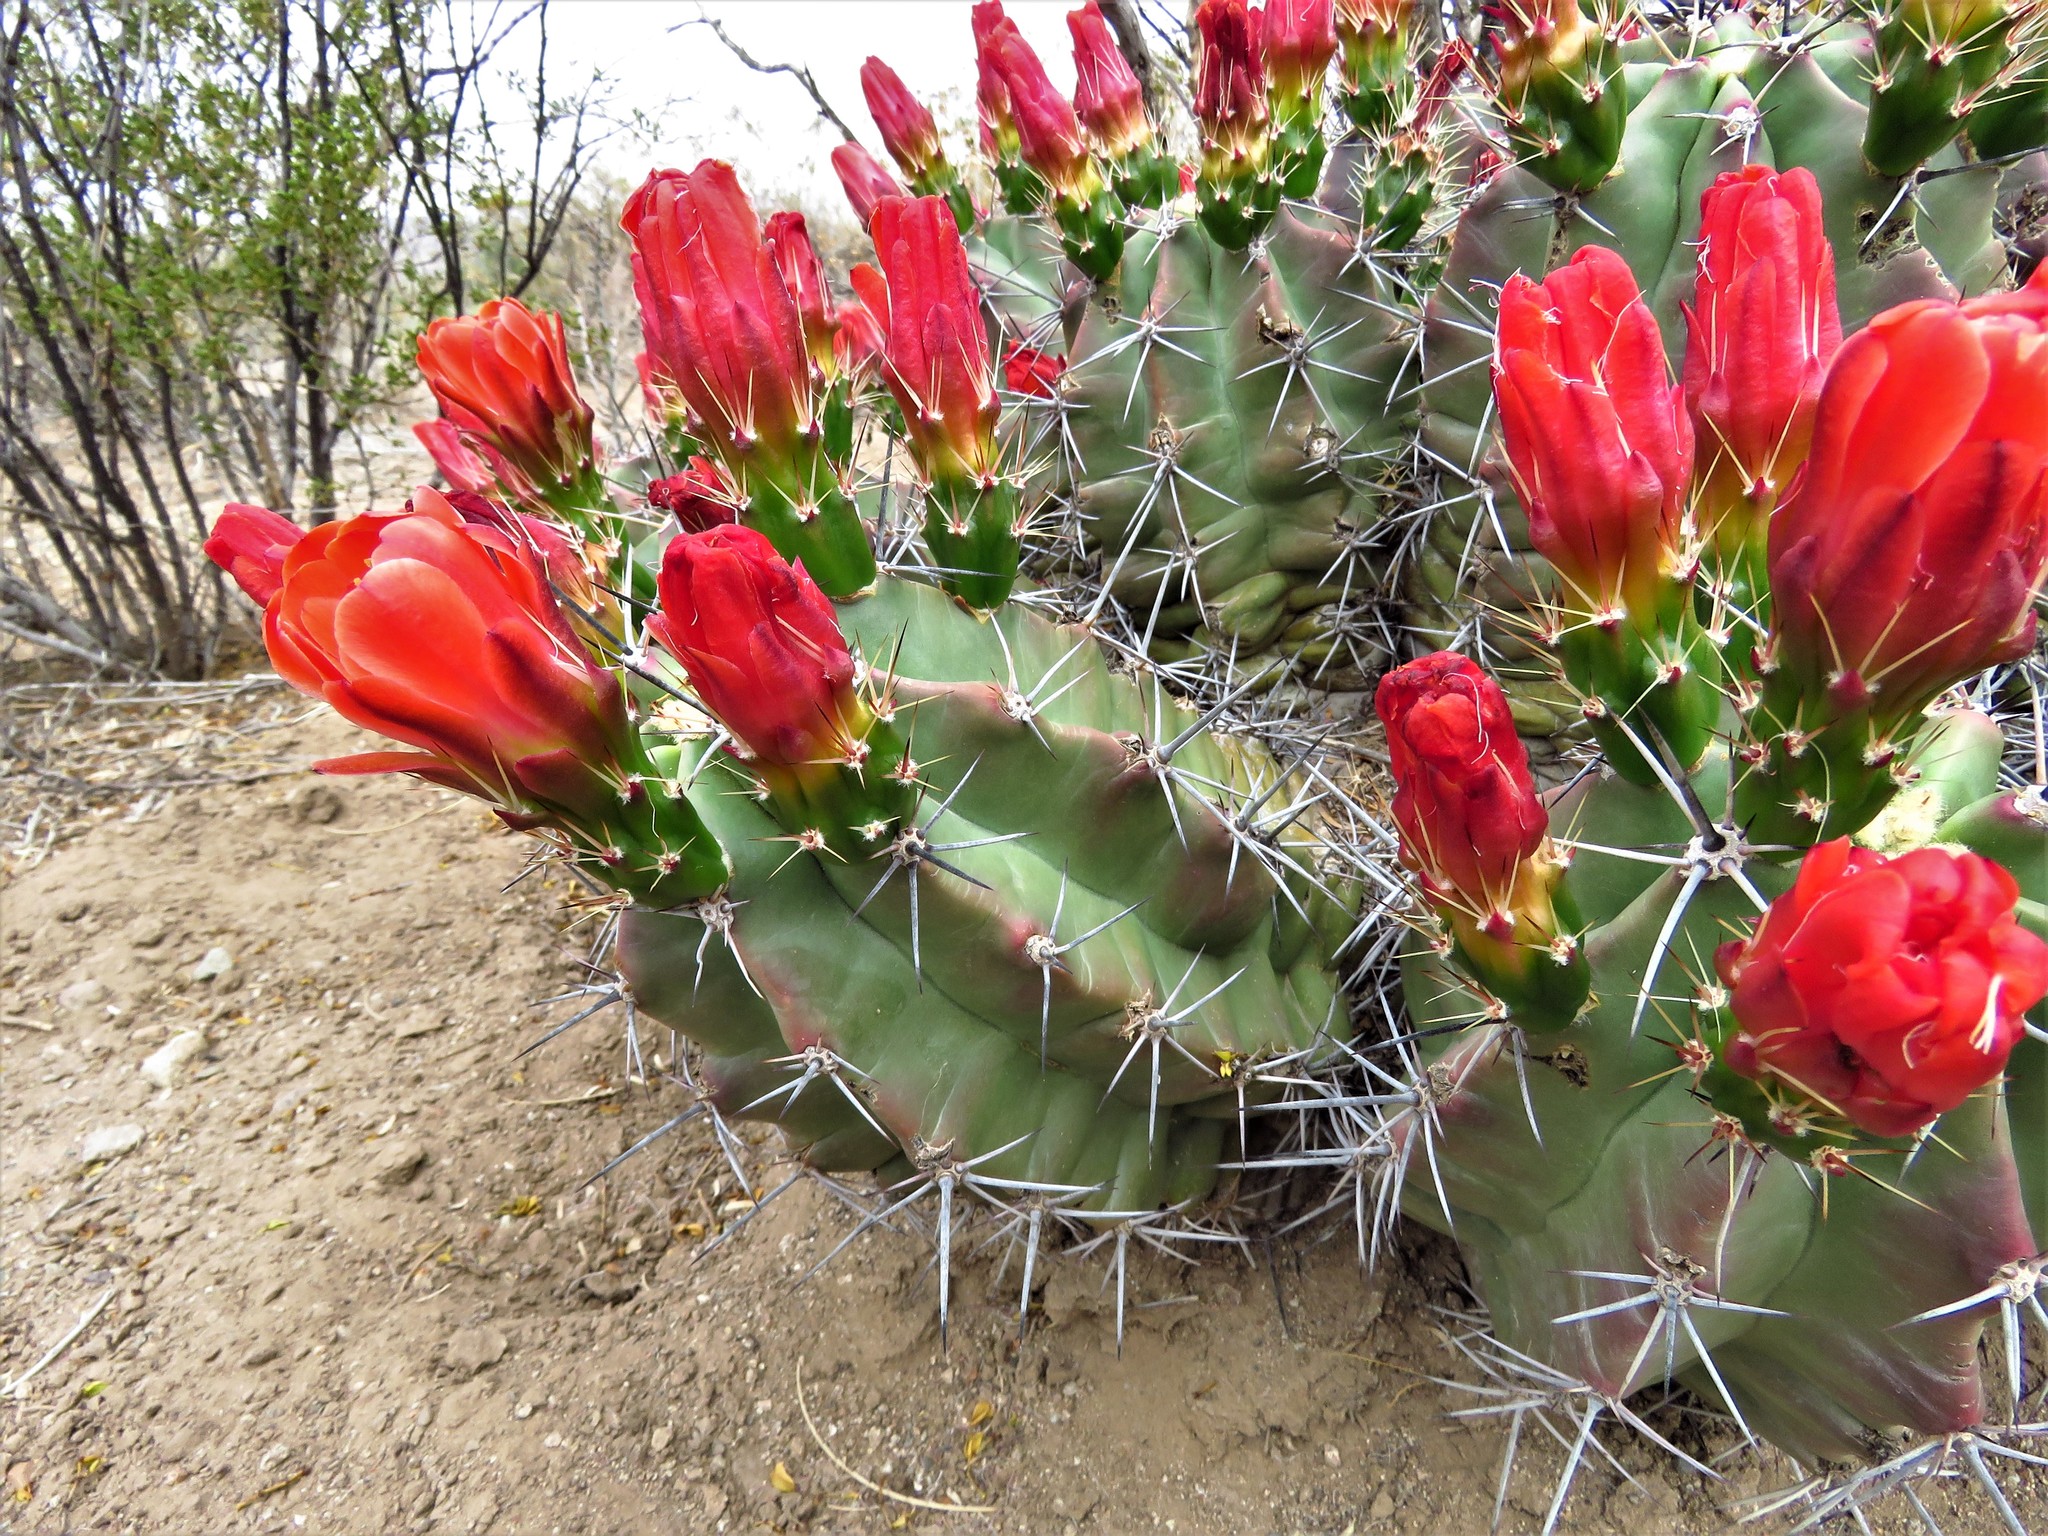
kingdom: Plantae
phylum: Tracheophyta
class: Magnoliopsida
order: Caryophyllales
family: Cactaceae
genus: Echinocereus
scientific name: Echinocereus coccineus
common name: Scarlet hedgehog cactus
